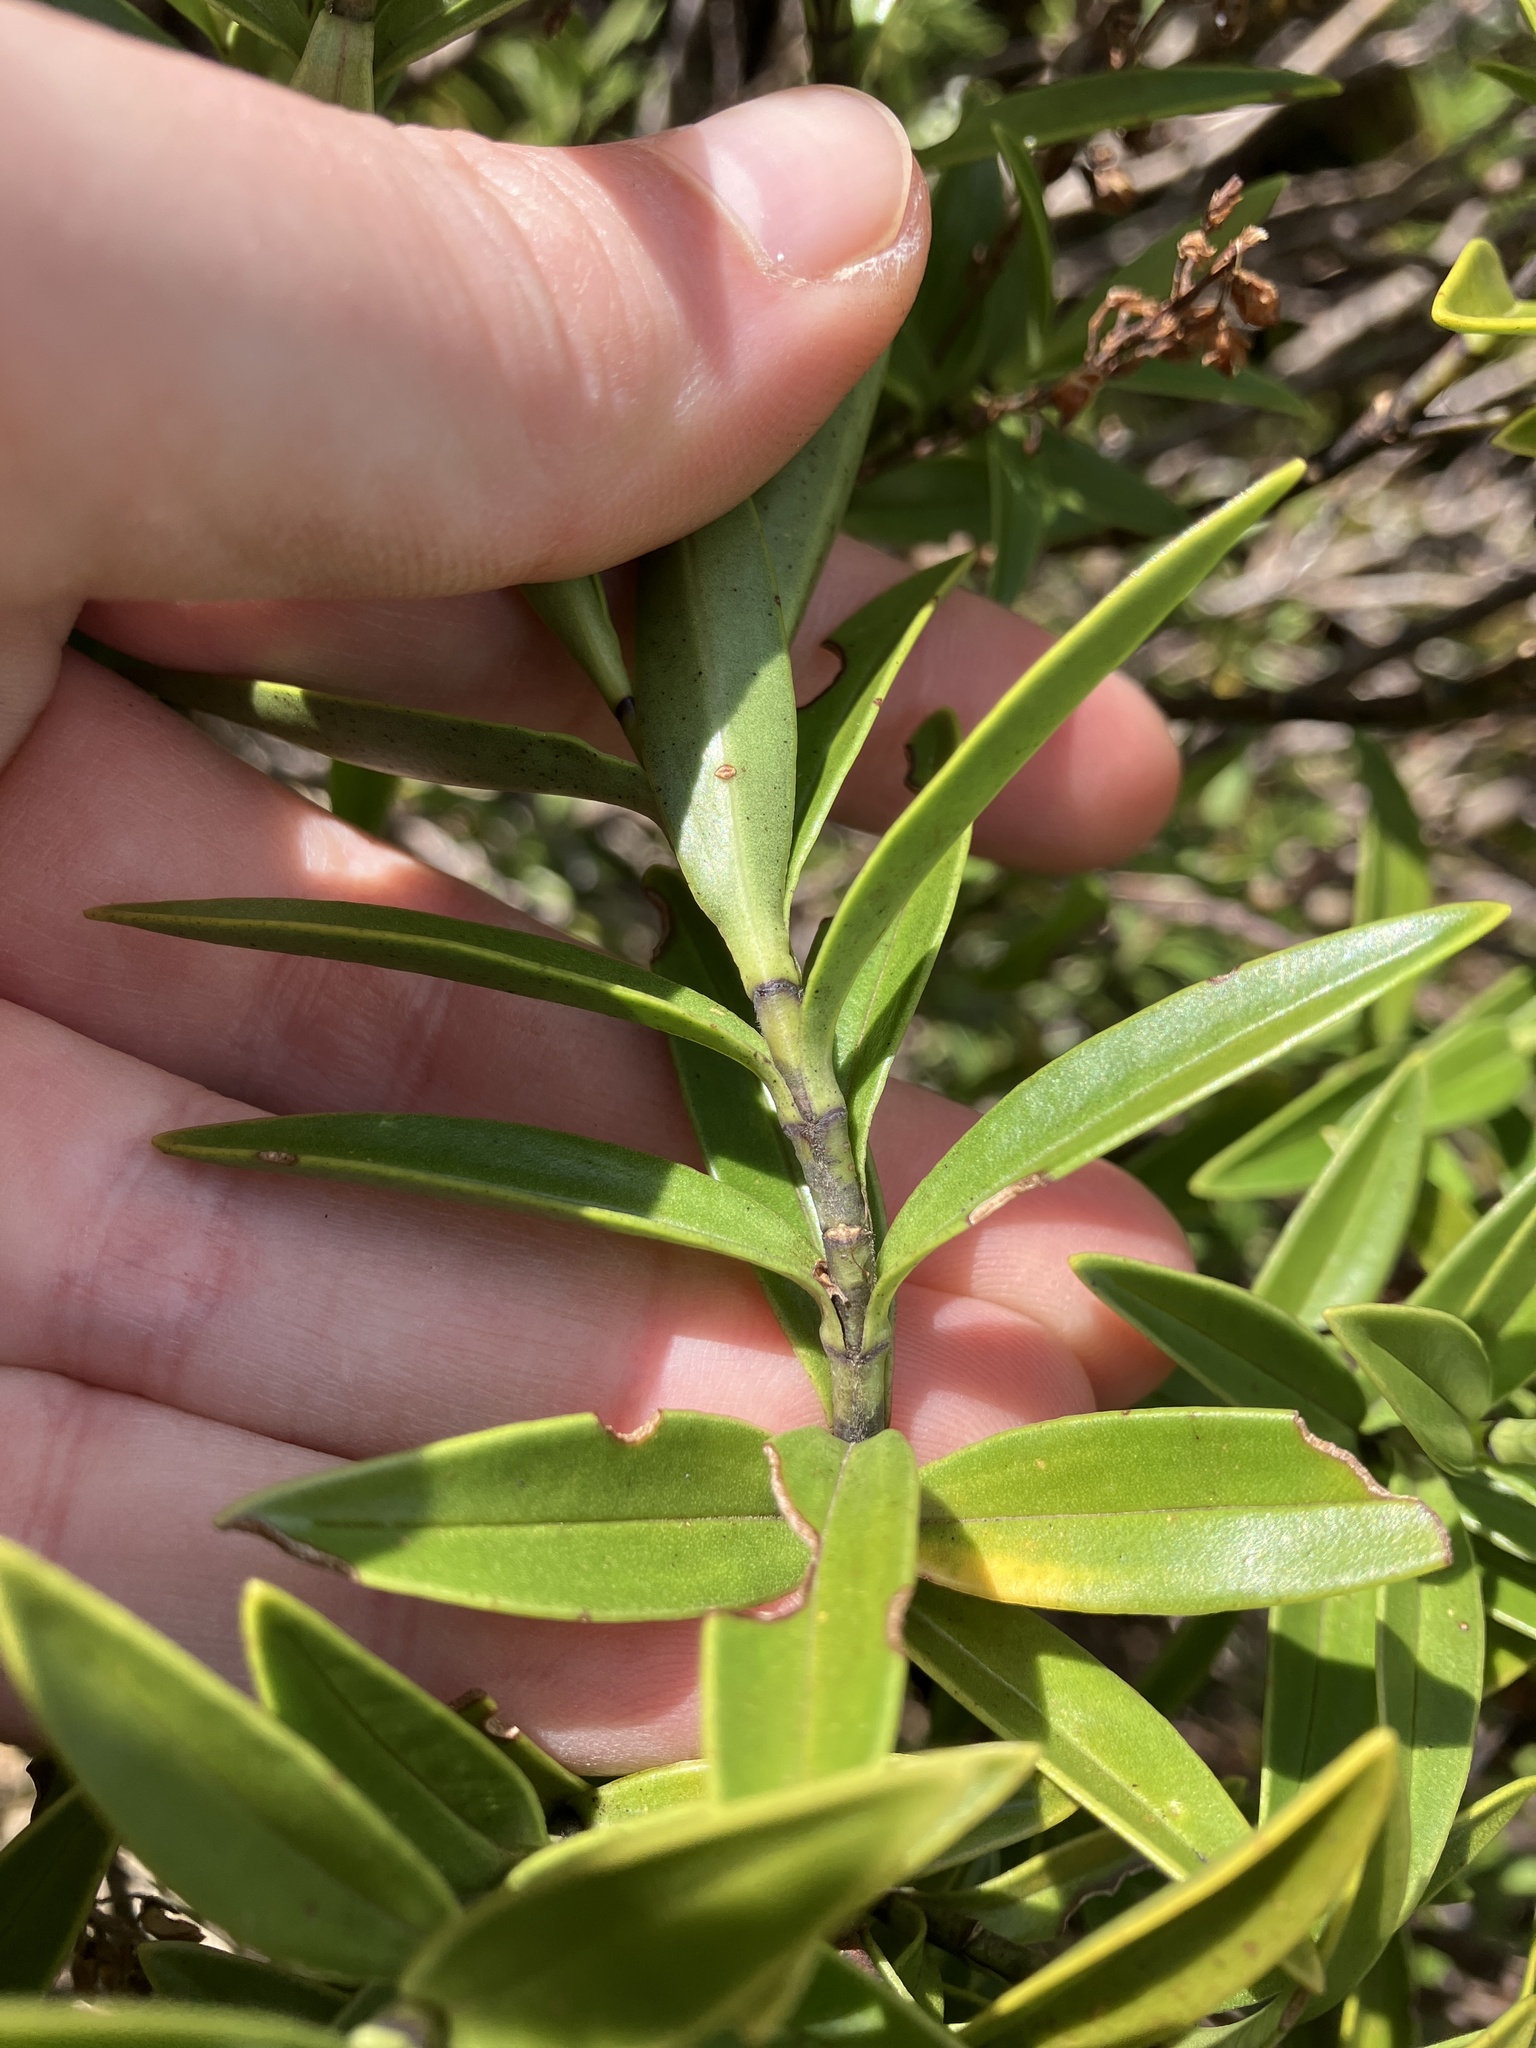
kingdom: Plantae
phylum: Tracheophyta
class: Magnoliopsida
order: Lamiales
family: Plantaginaceae
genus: Veronica
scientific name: Veronica subalpina
